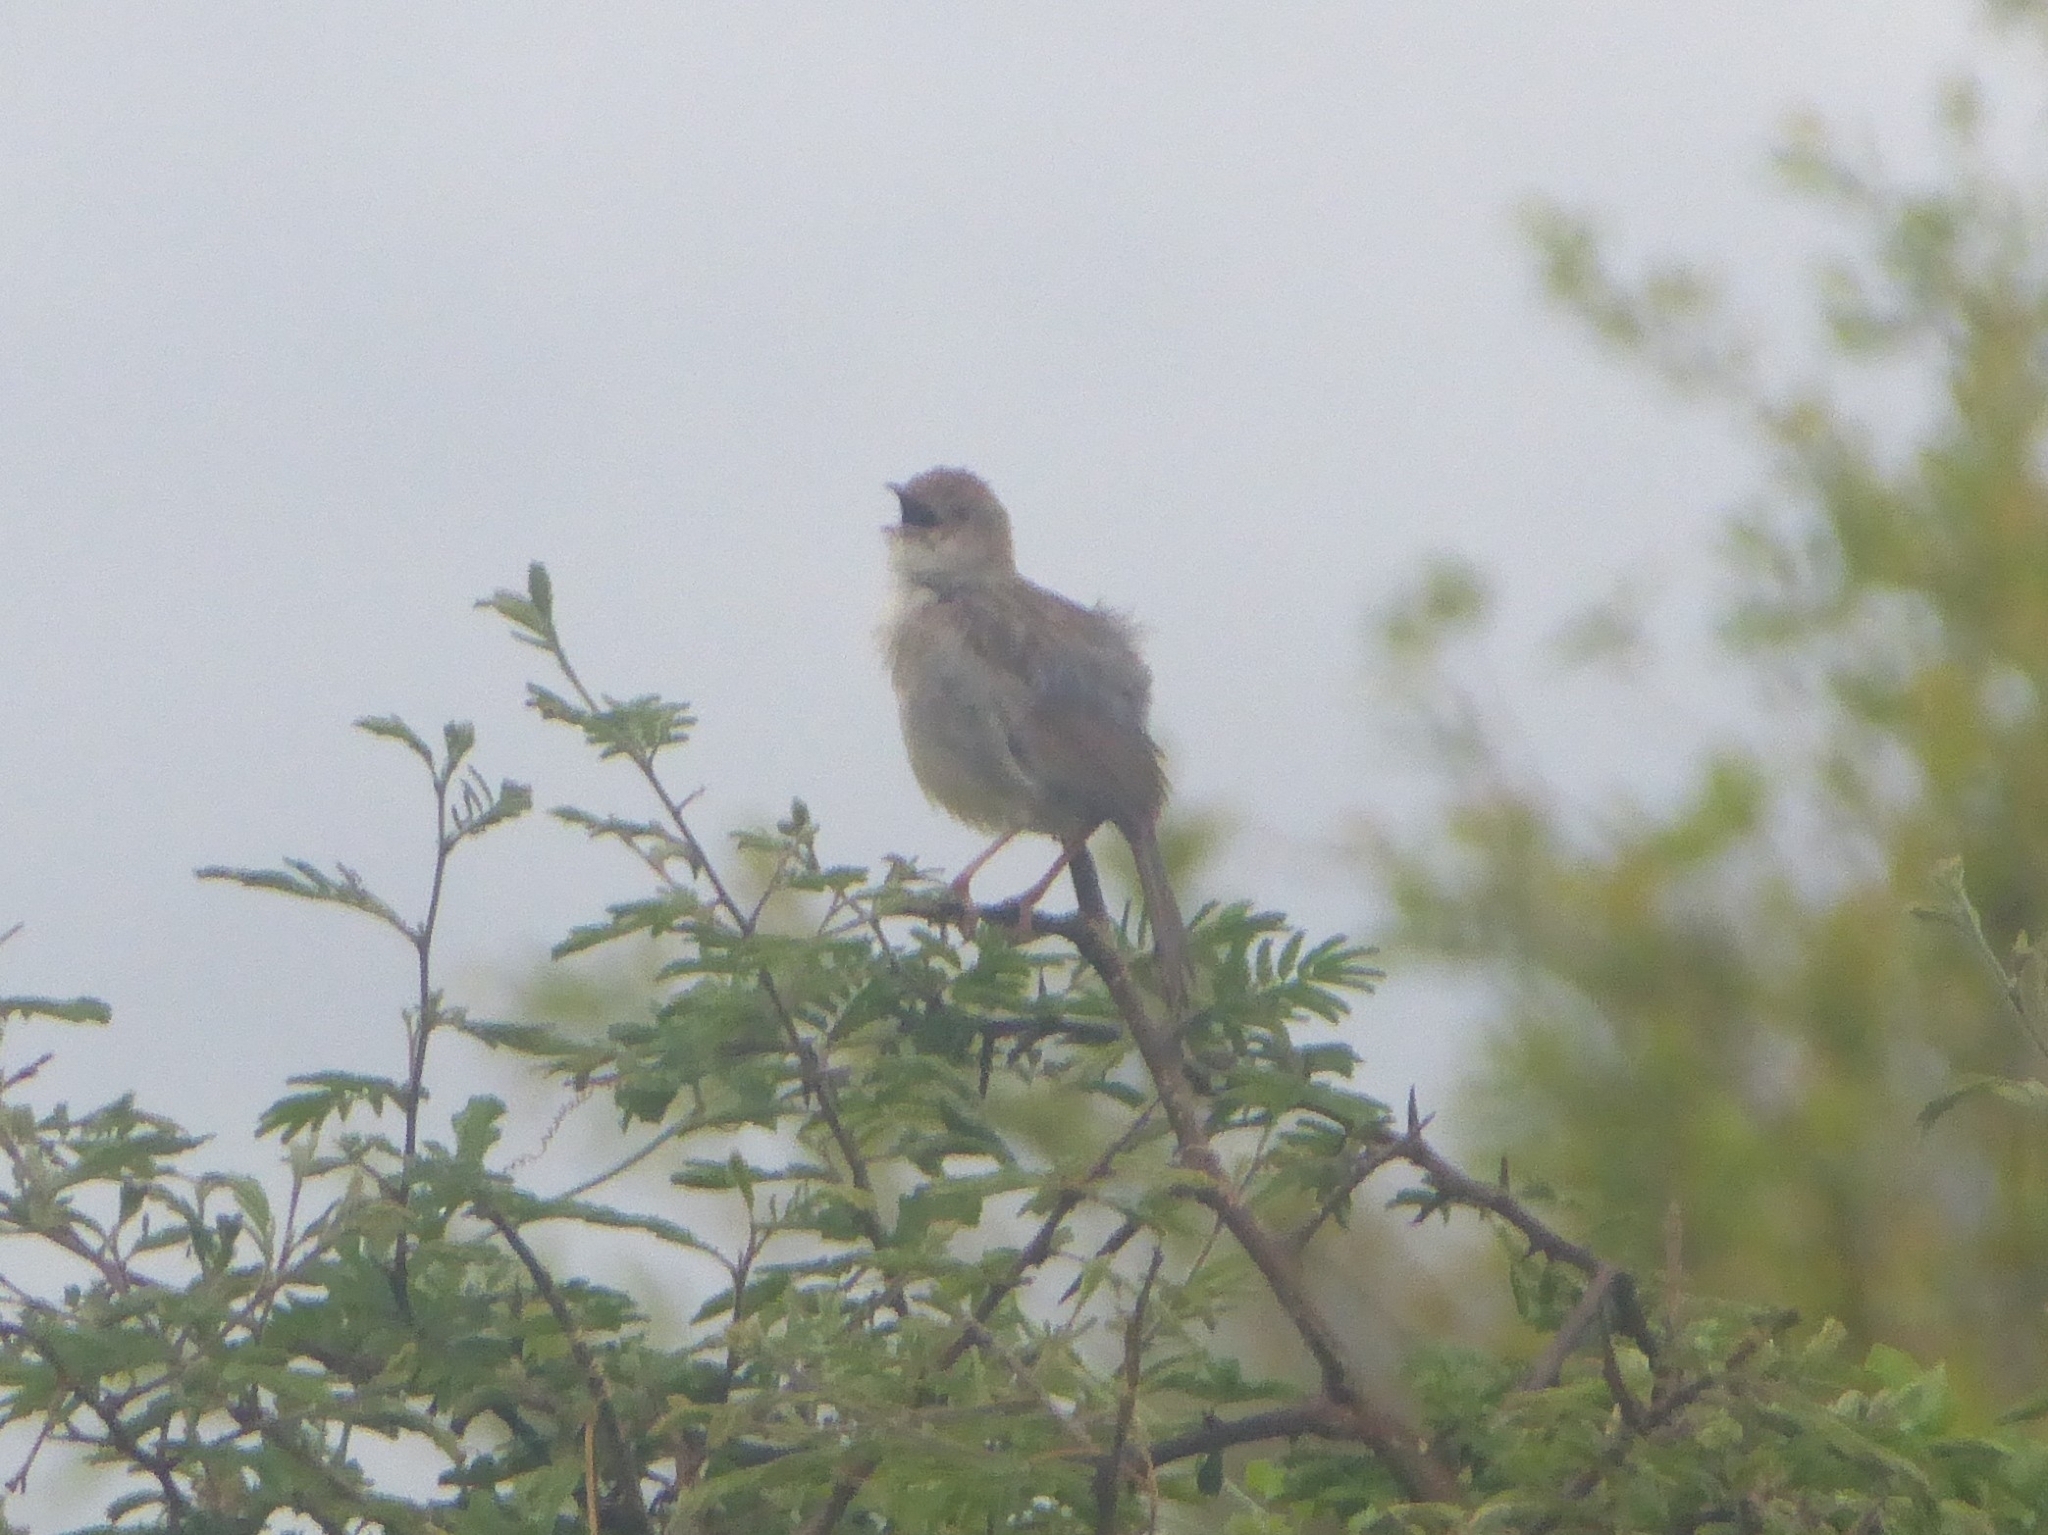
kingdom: Animalia
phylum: Chordata
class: Aves
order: Passeriformes
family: Cisticolidae
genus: Cisticola
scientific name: Cisticola chiniana
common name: Rattling cisticola
